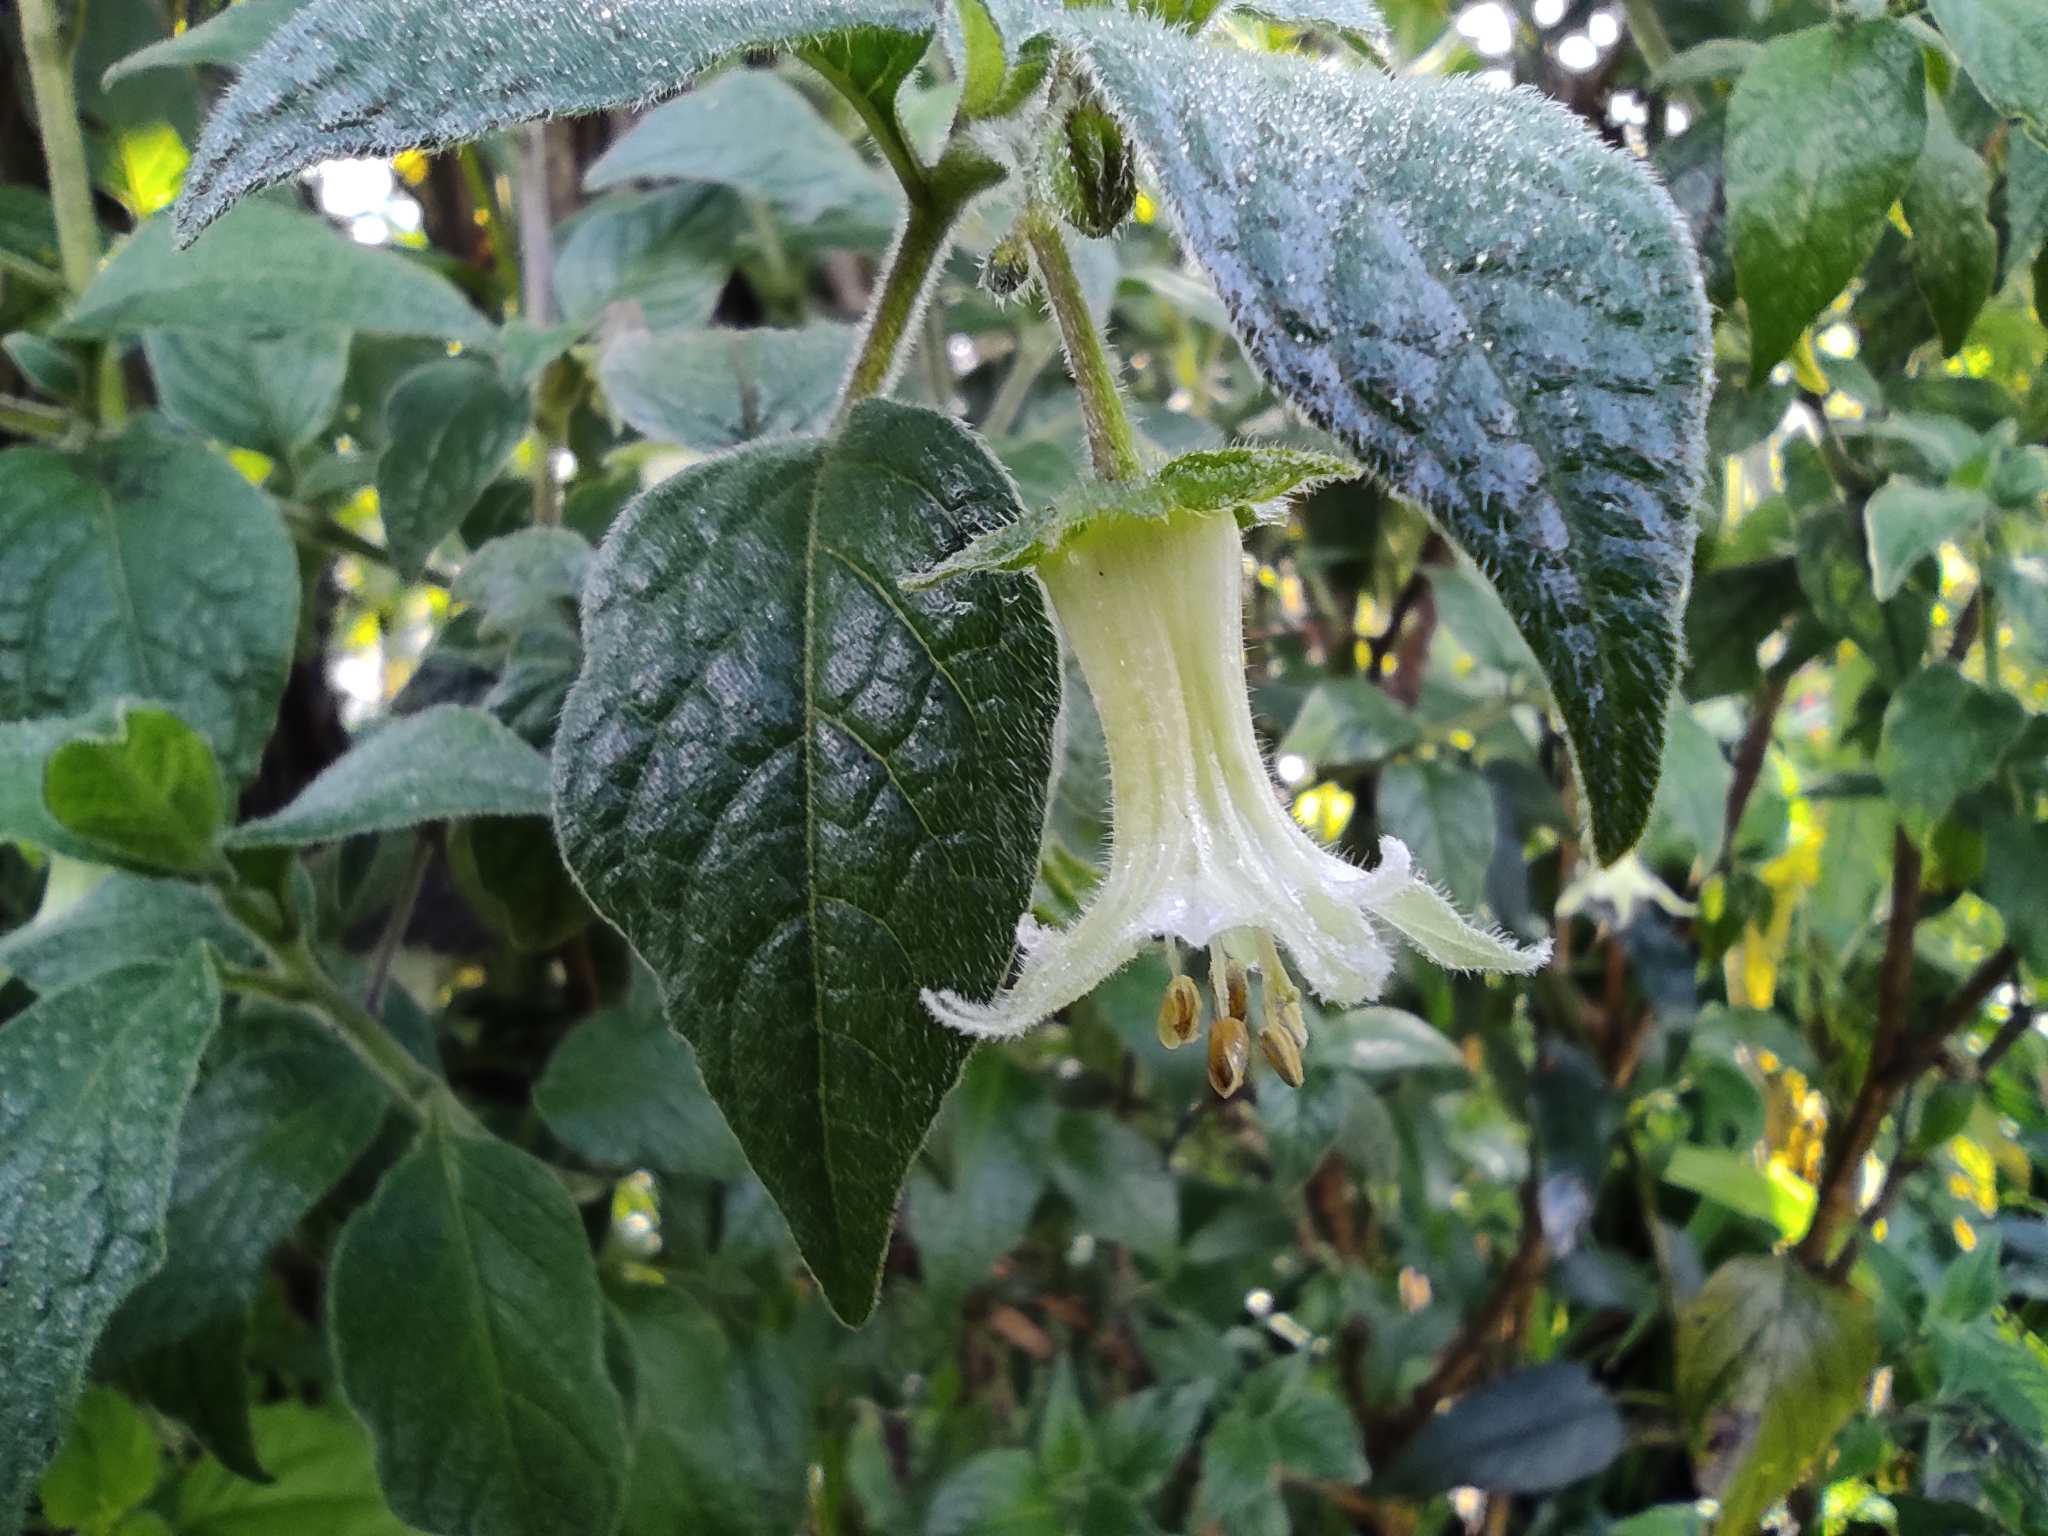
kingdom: Plantae
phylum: Tracheophyta
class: Magnoliopsida
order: Solanales
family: Solanaceae
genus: Jaltomata
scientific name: Jaltomata viridiflora
